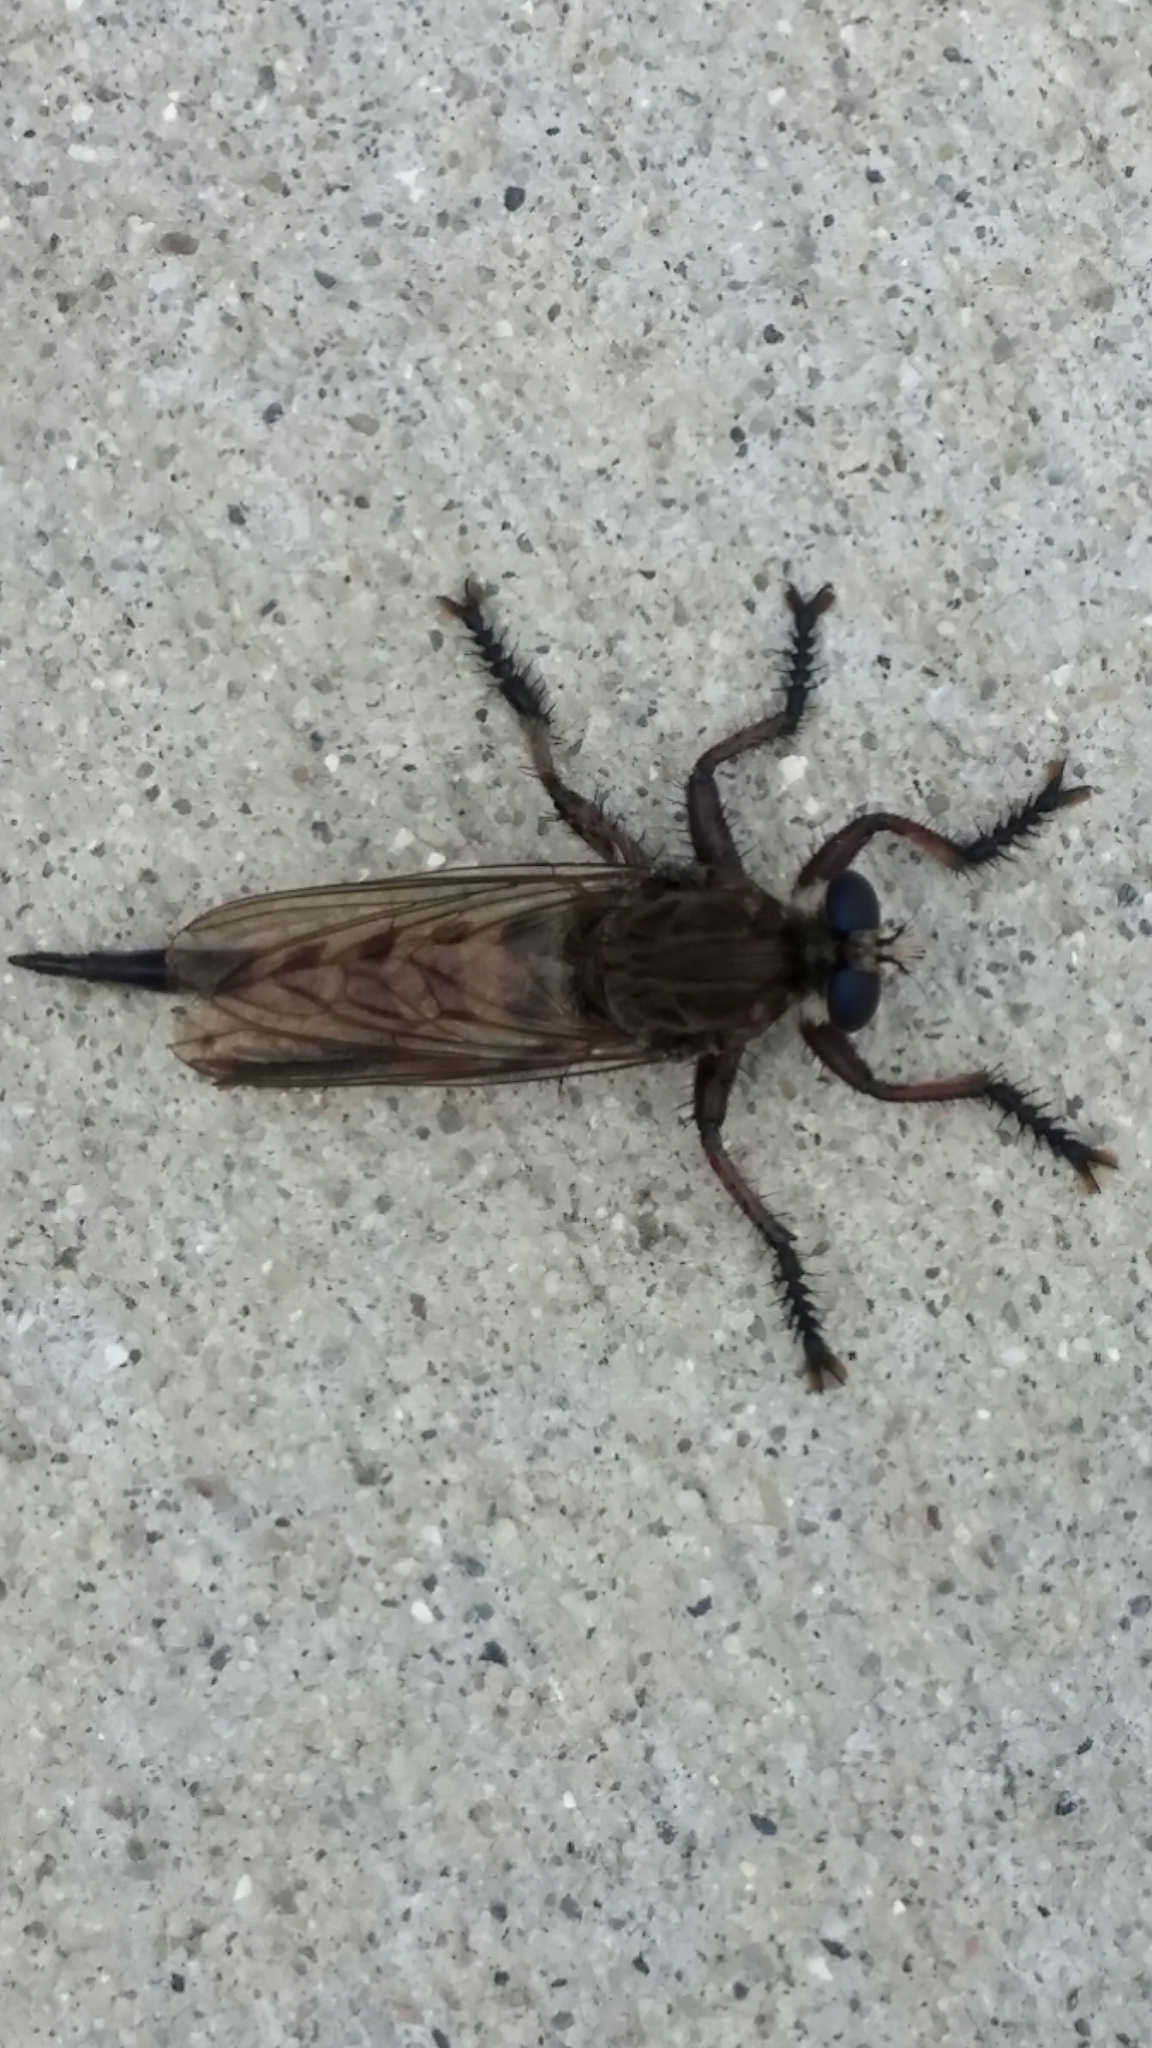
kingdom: Animalia
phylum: Arthropoda
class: Insecta
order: Diptera
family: Asilidae
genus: Promachus
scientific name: Promachus hinei
